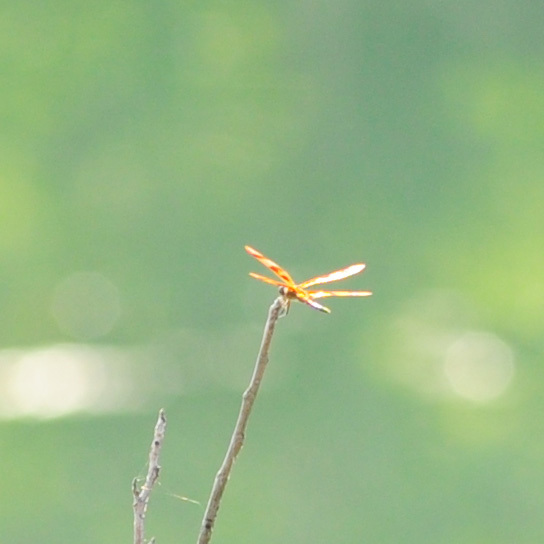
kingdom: Animalia
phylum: Arthropoda
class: Insecta
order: Odonata
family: Libellulidae
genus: Celithemis
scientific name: Celithemis eponina
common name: Halloween pennant
